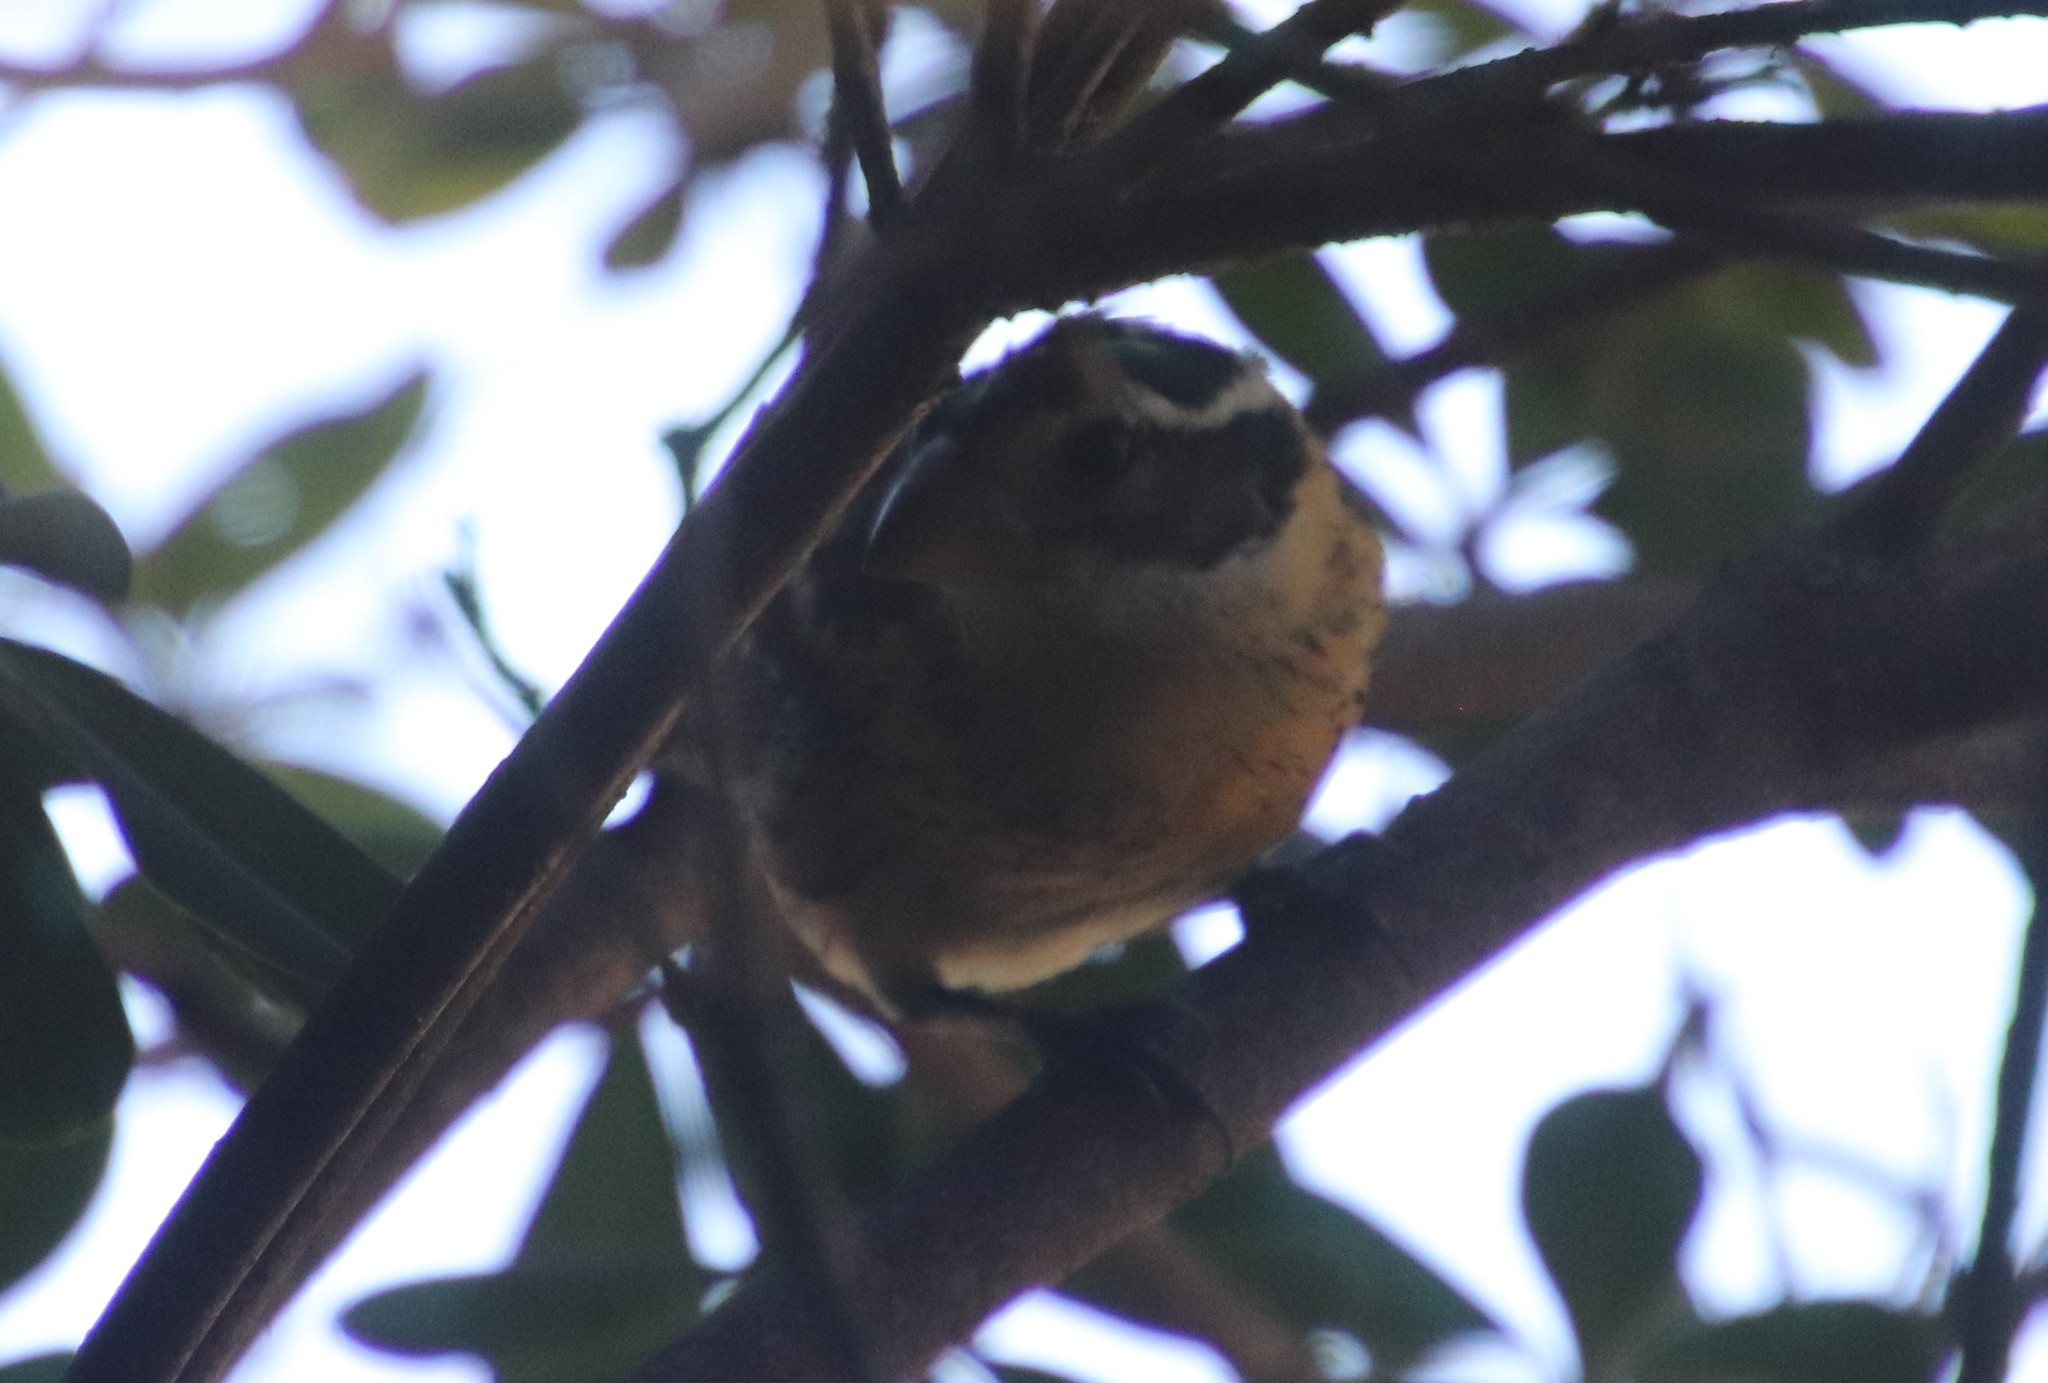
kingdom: Animalia
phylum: Chordata
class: Aves
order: Passeriformes
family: Cardinalidae
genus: Pheucticus
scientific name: Pheucticus melanocephalus
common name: Black-headed grosbeak
